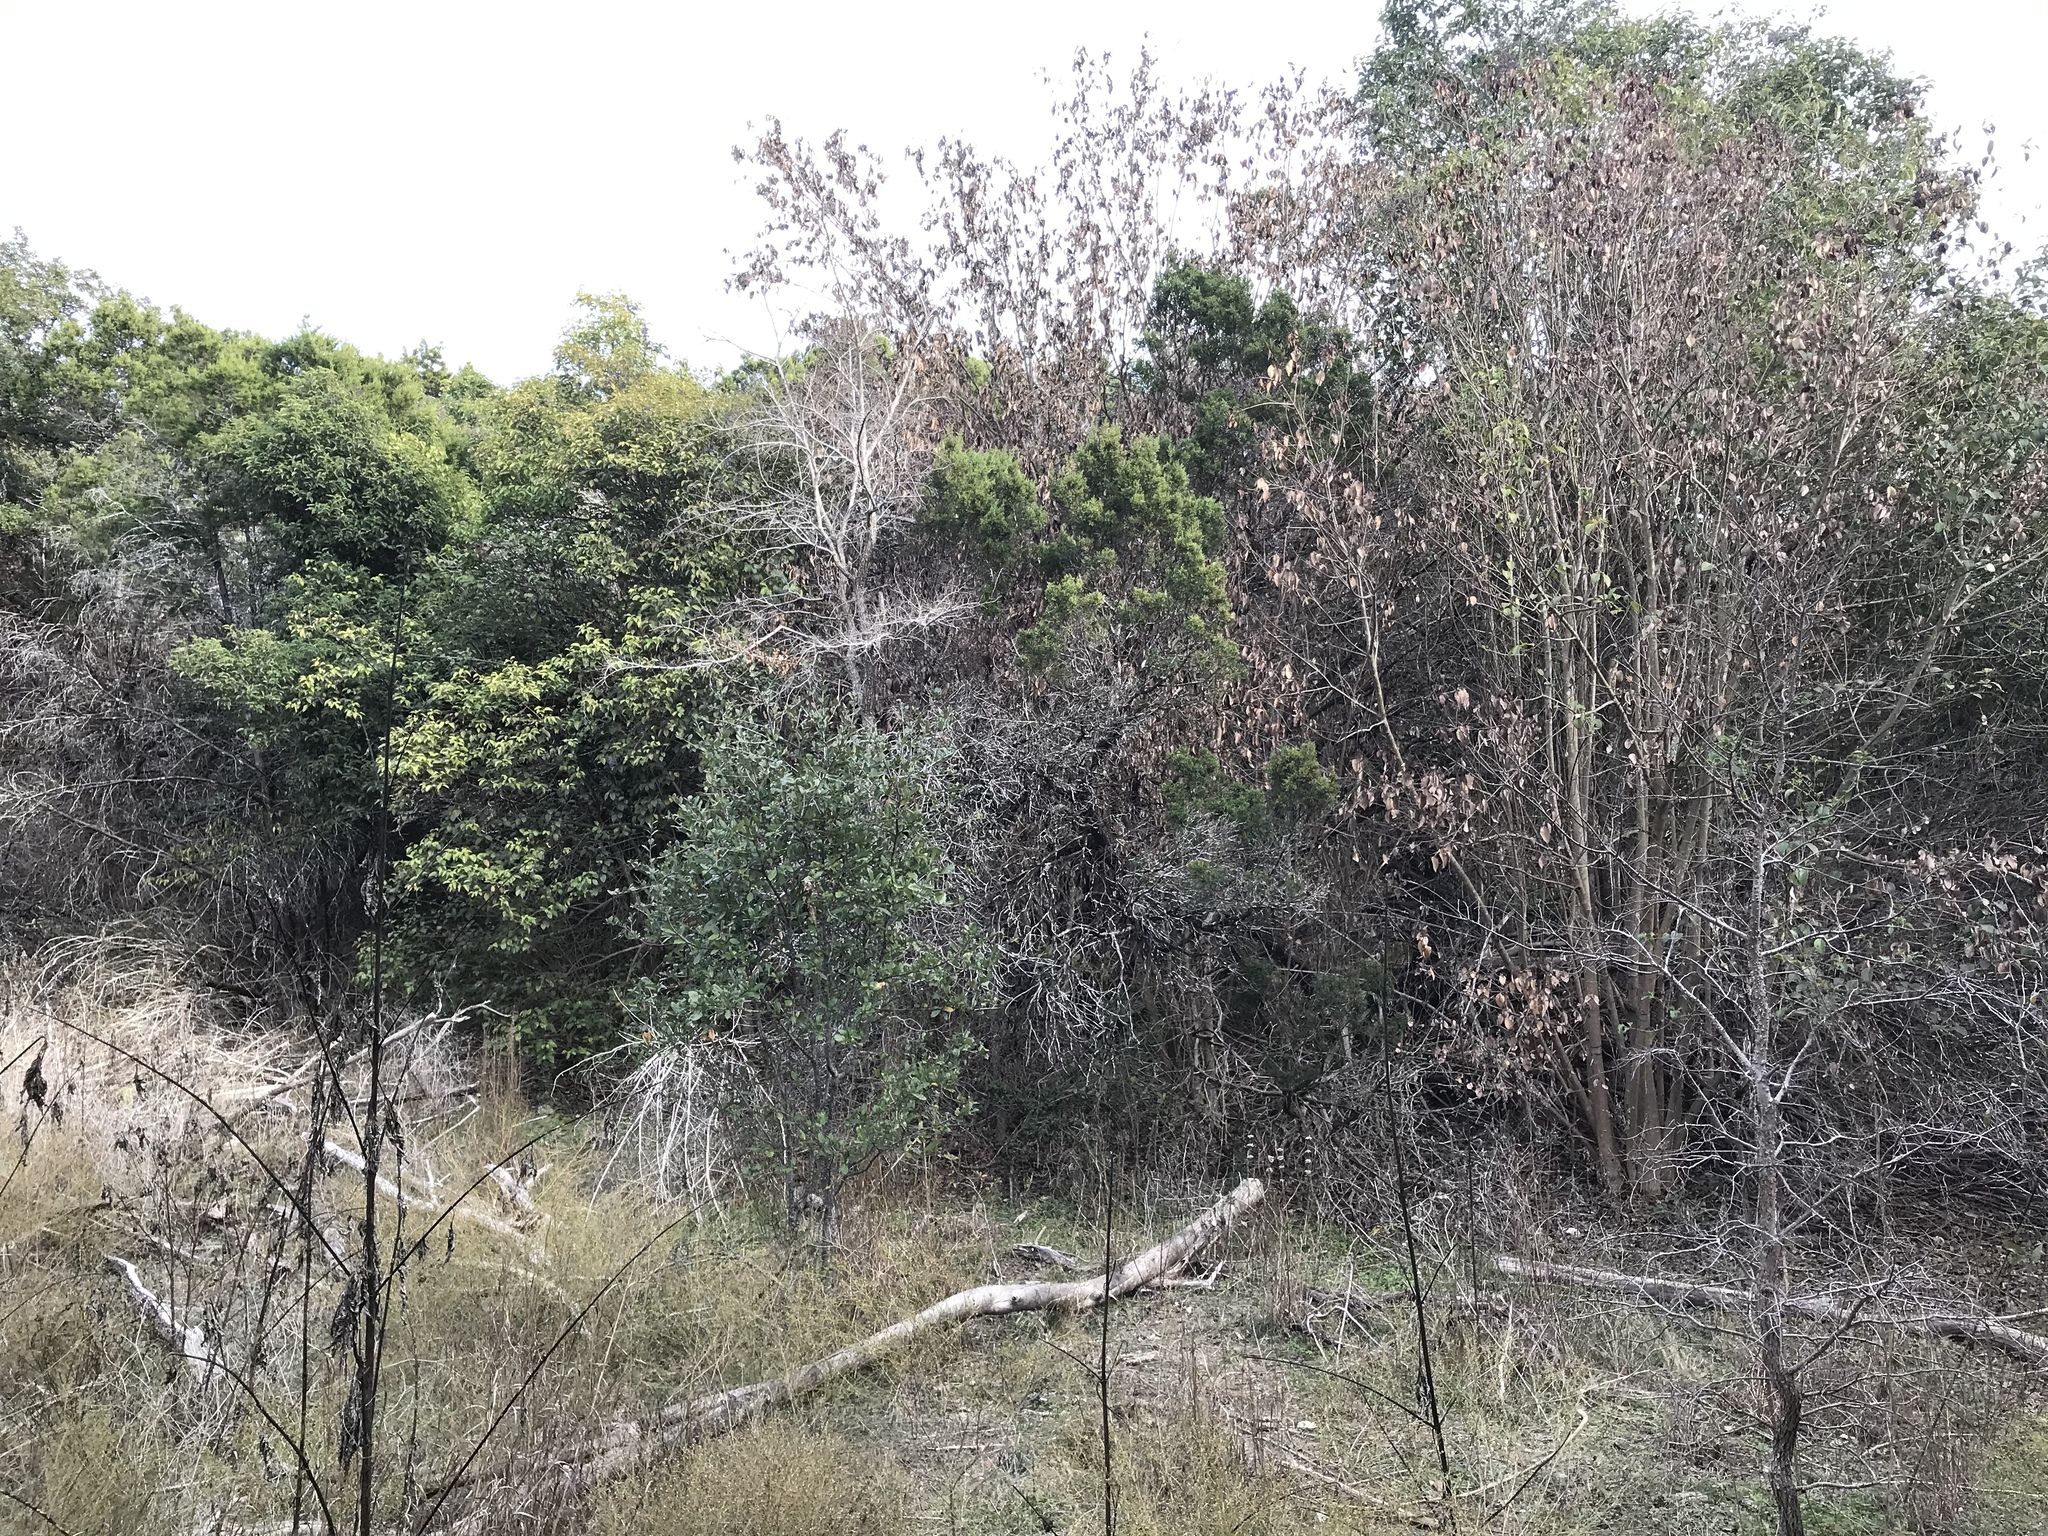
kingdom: Plantae
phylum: Tracheophyta
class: Magnoliopsida
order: Lamiales
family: Oleaceae
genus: Ligustrum
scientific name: Ligustrum lucidum
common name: Glossy privet
